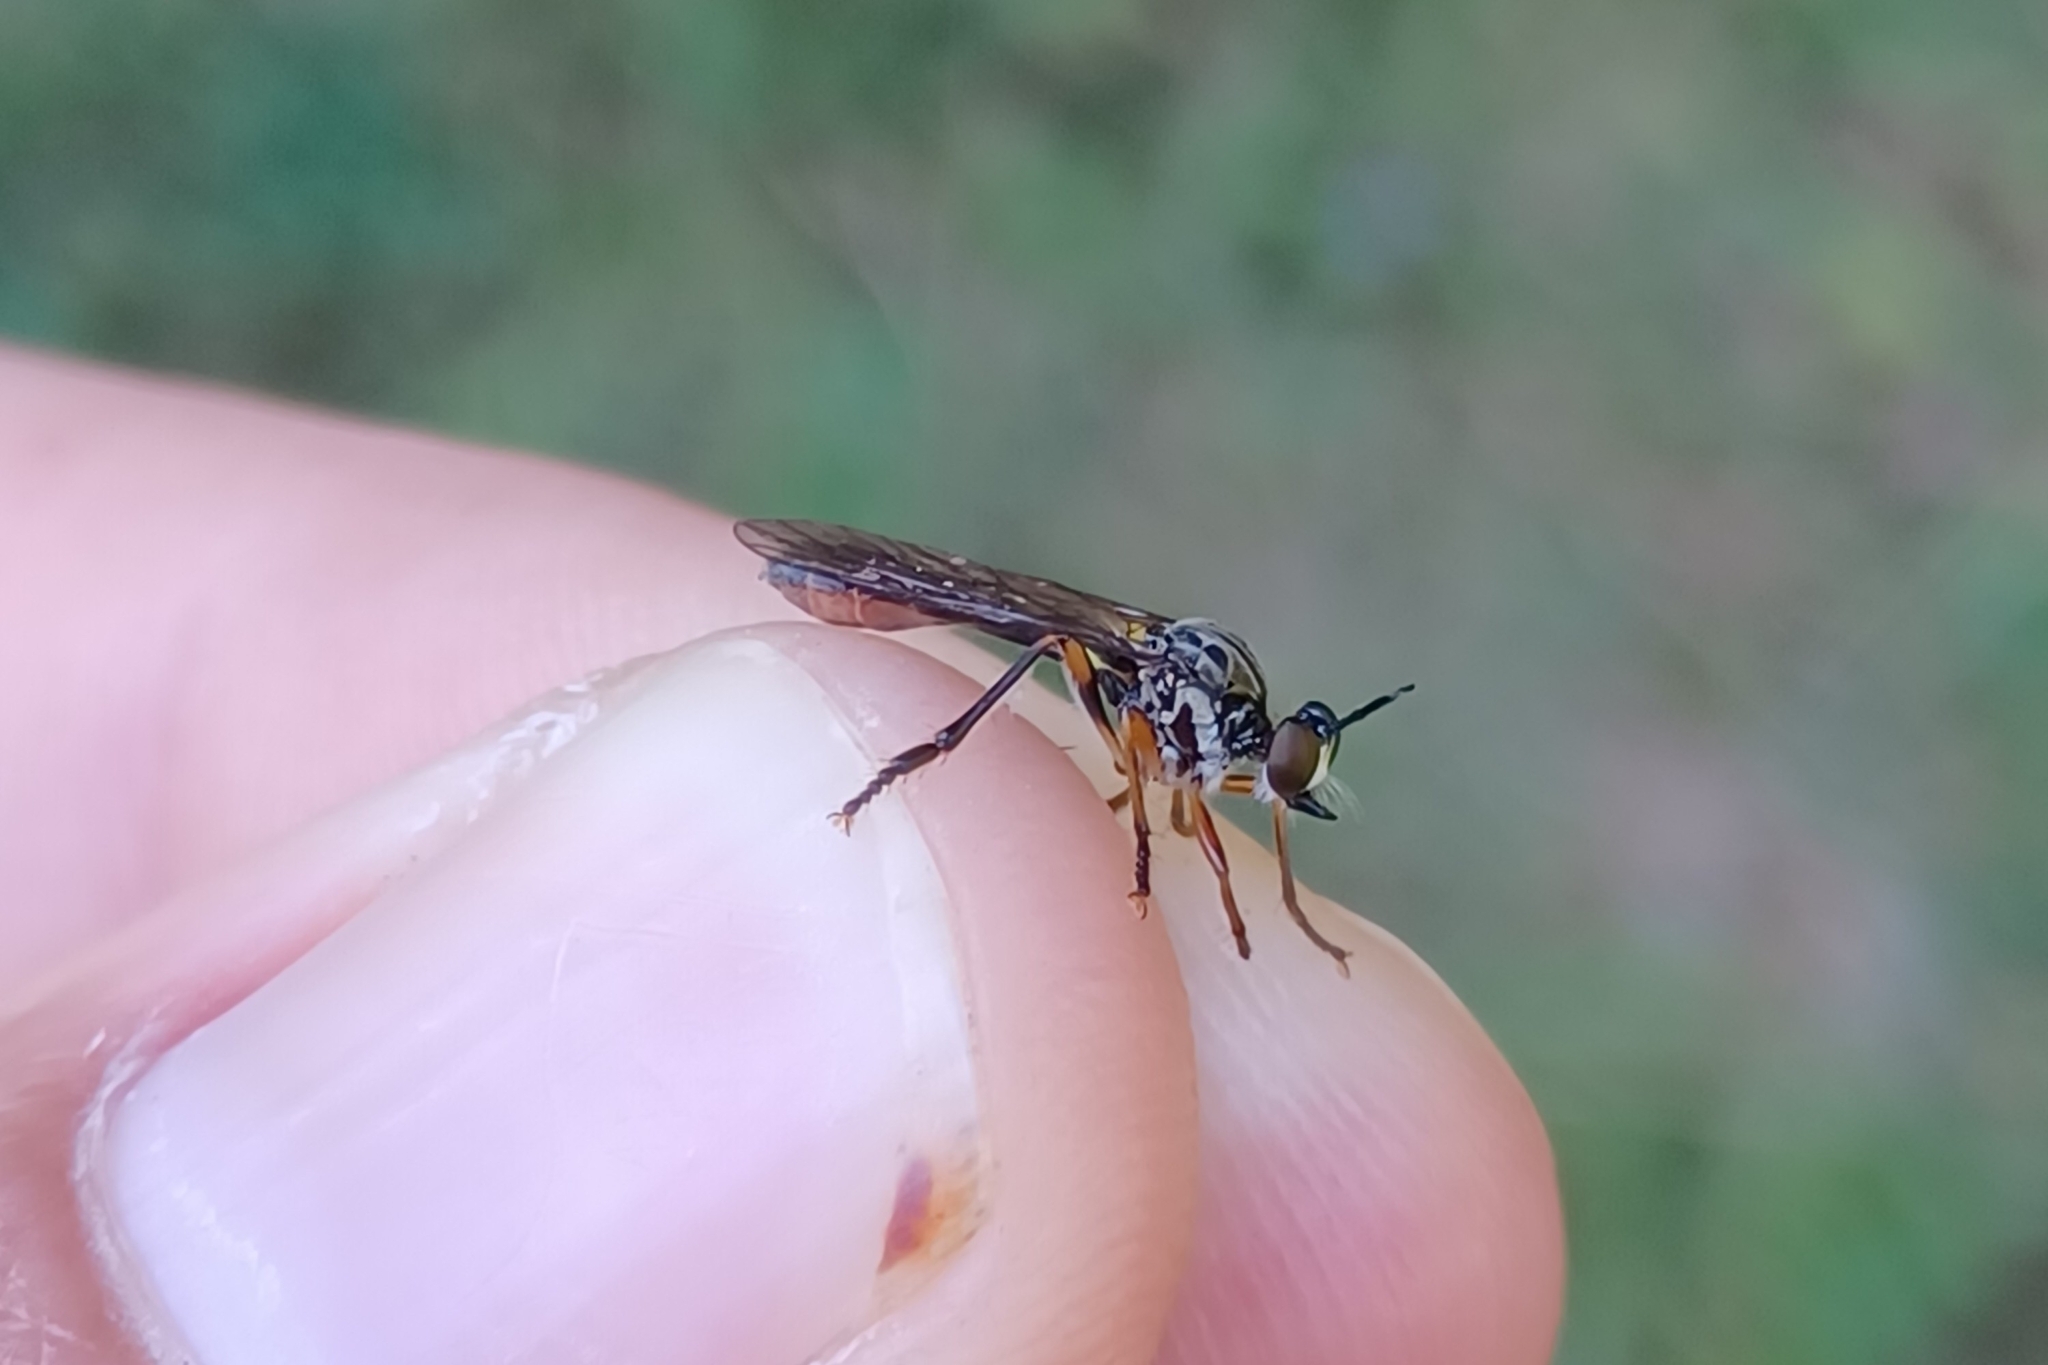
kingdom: Animalia
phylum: Arthropoda
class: Insecta
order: Diptera
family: Asilidae
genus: Dioctria
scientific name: Dioctria hyalipennis
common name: Stripe-legged robberfly
